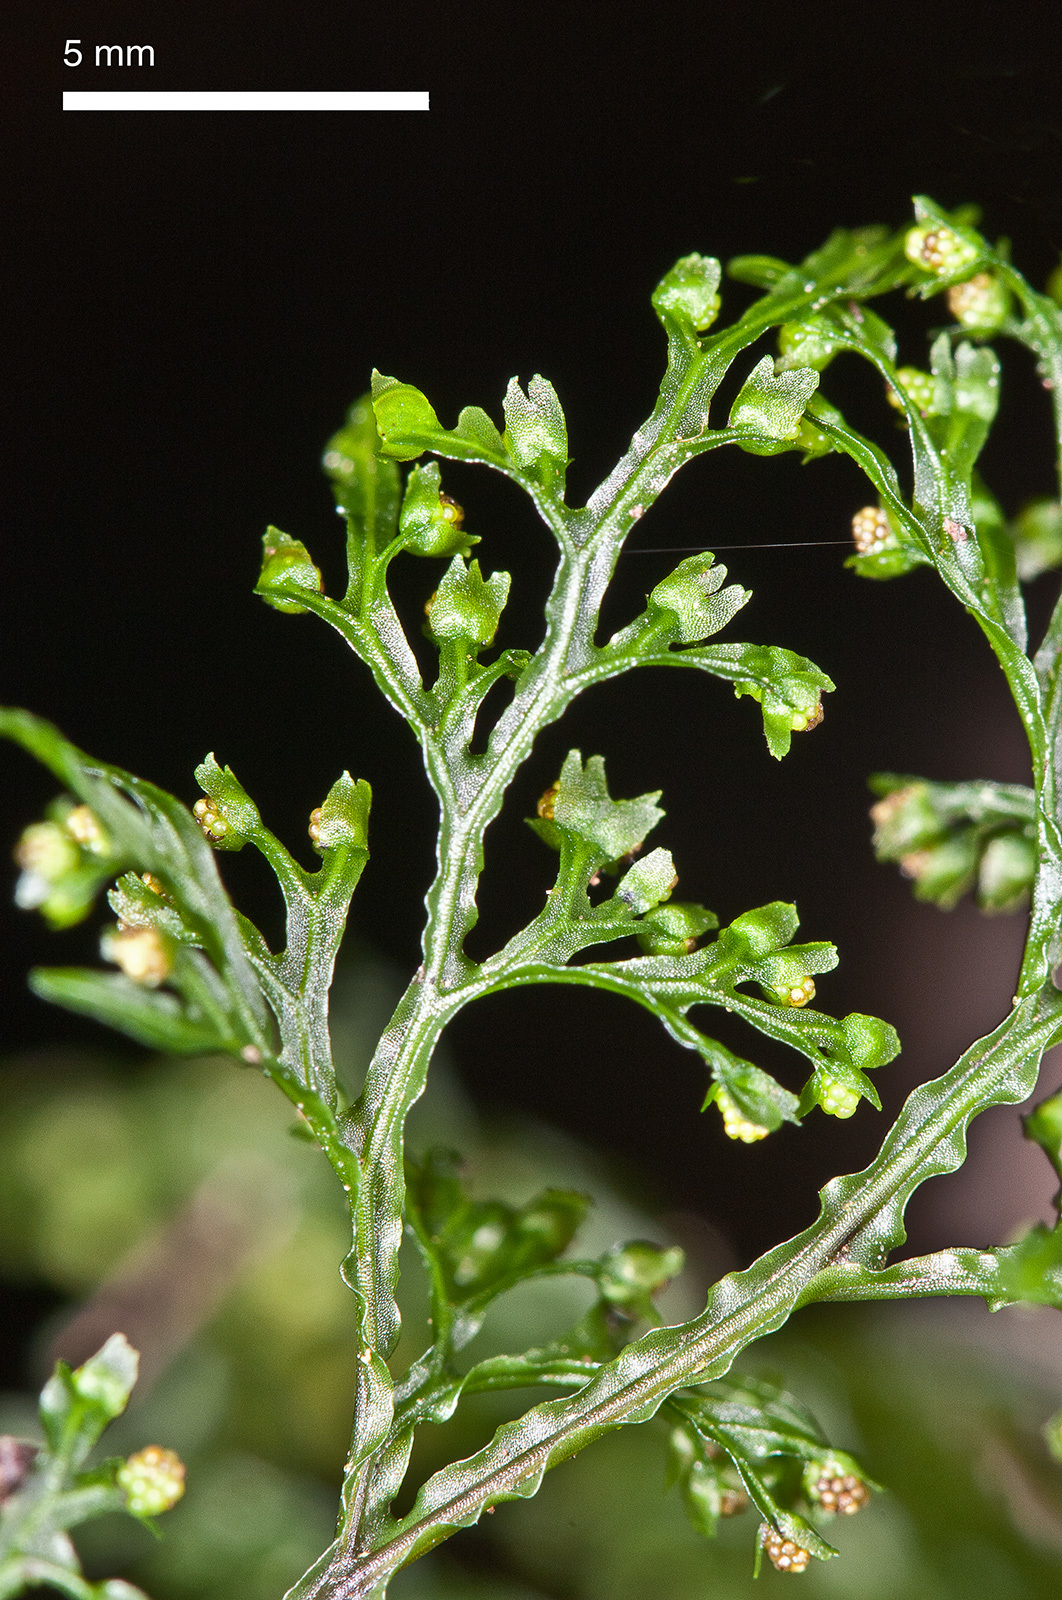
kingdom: Plantae
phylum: Tracheophyta
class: Polypodiopsida
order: Hymenophyllales
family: Hymenophyllaceae
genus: Hymenophyllum
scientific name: Hymenophyllum pluviatile
